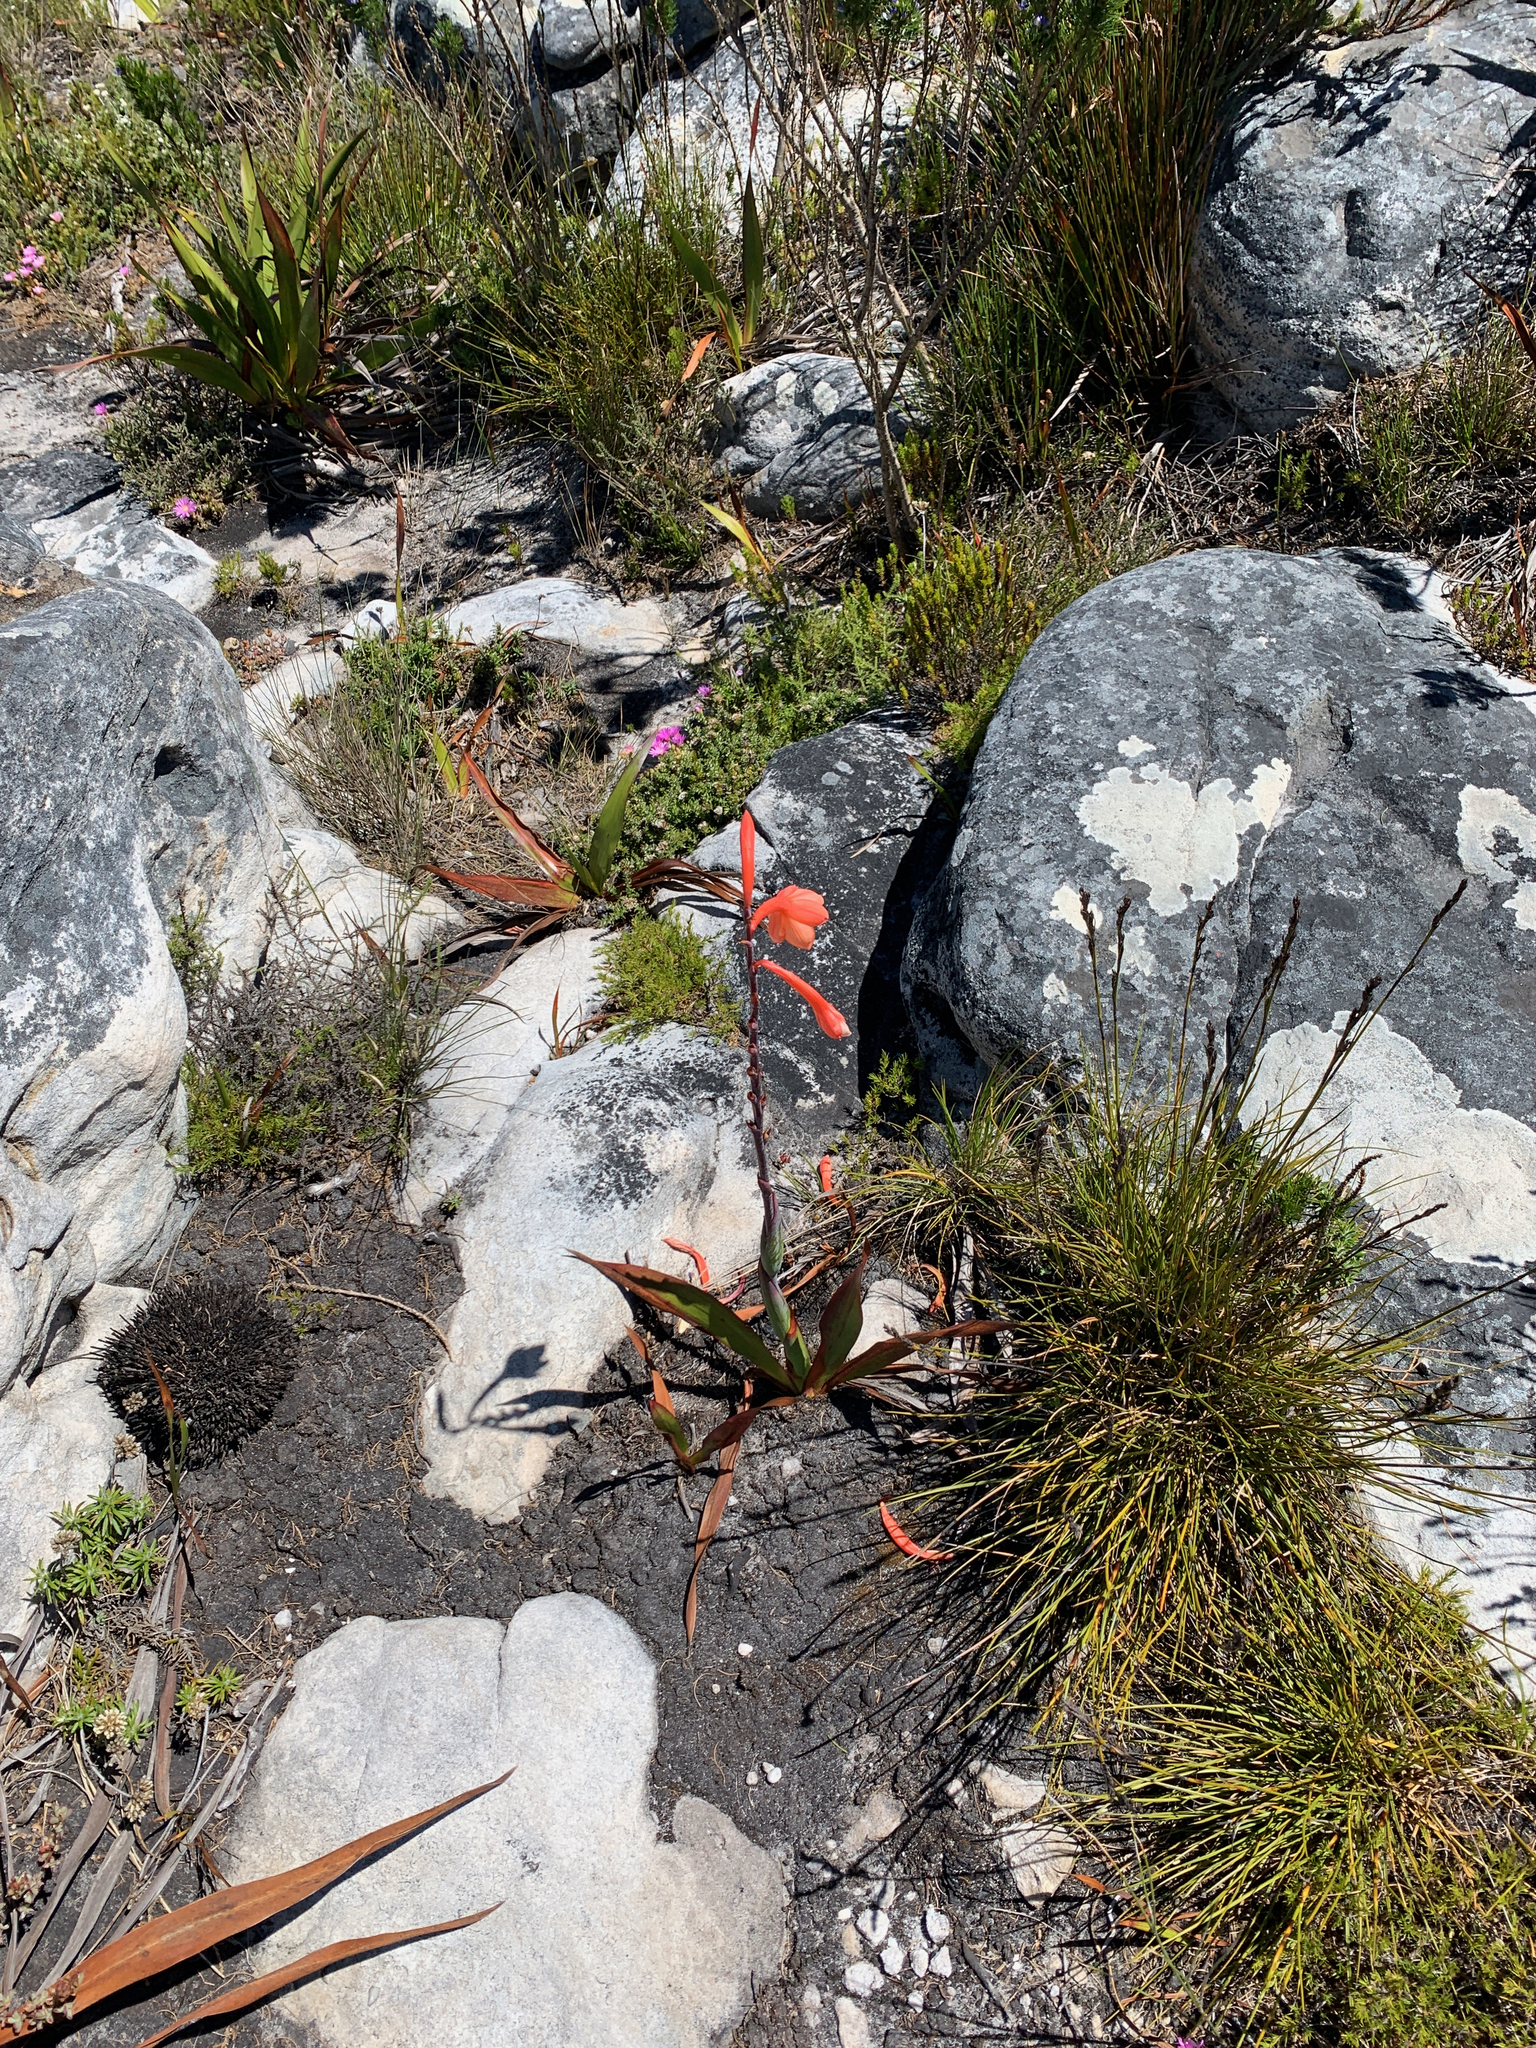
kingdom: Plantae
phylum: Tracheophyta
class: Liliopsida
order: Asparagales
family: Iridaceae
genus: Watsonia
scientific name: Watsonia tabularis
